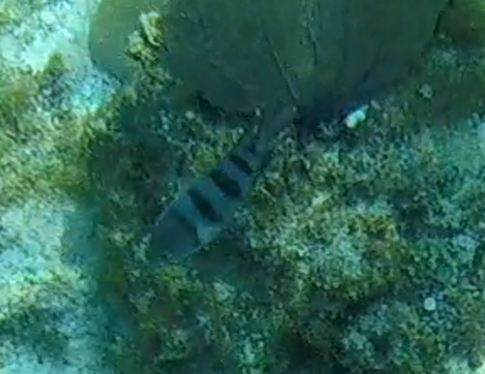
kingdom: Animalia
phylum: Chordata
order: Perciformes
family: Pomacentridae
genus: Abudefduf
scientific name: Abudefduf saxatilis
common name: Sergeant major
